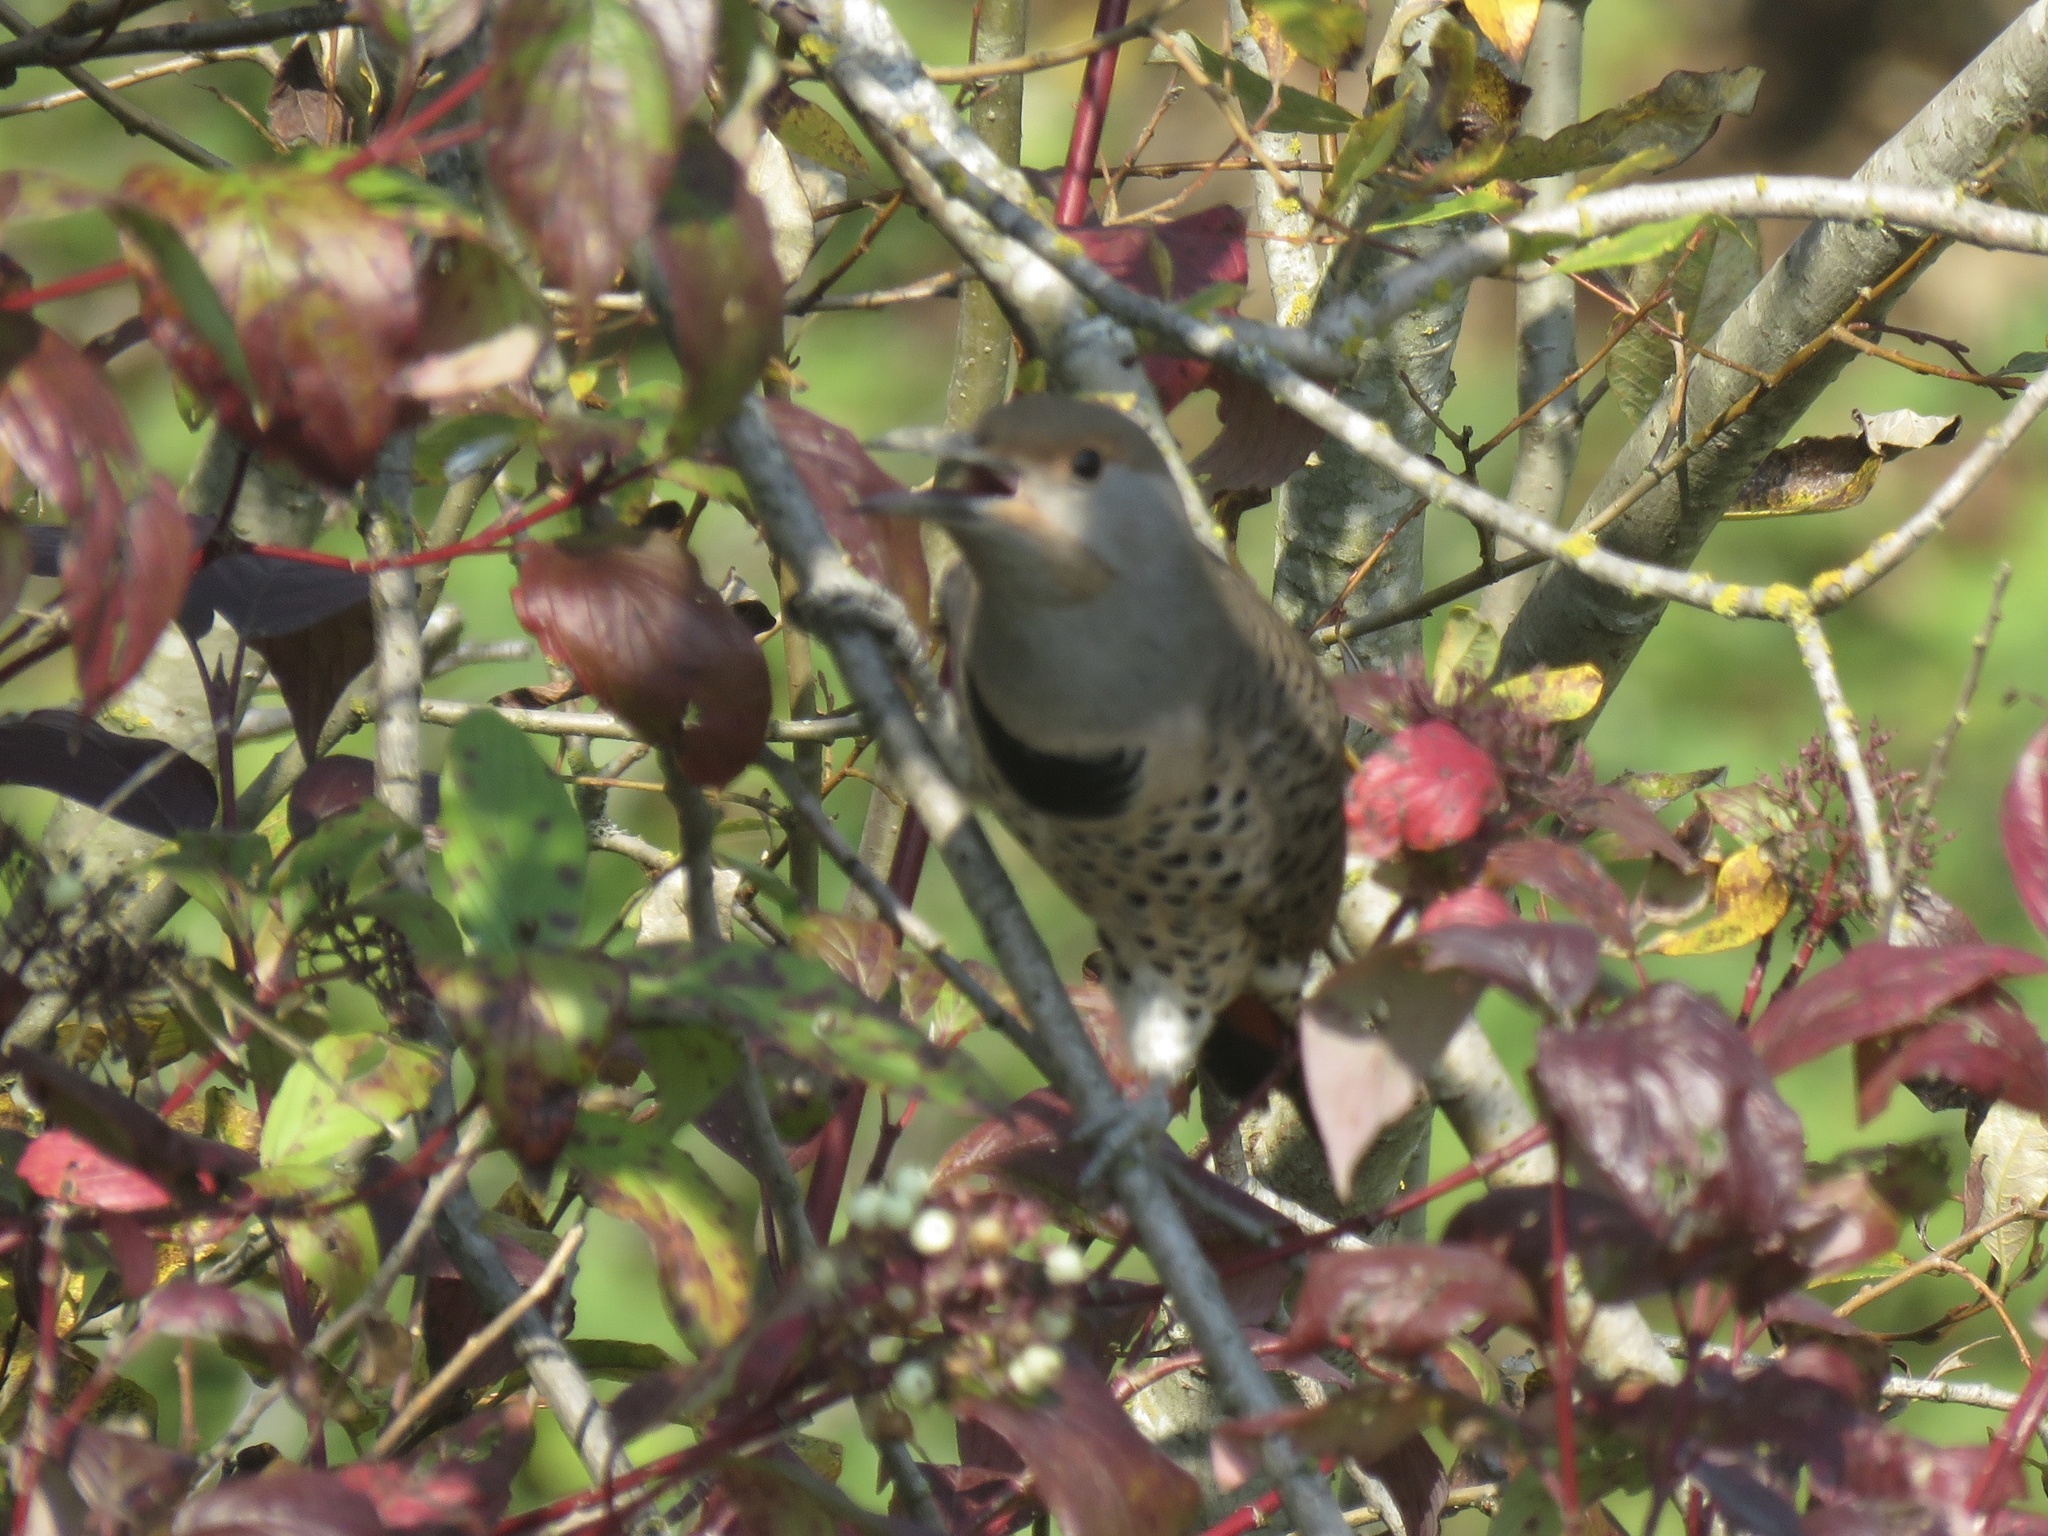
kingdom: Animalia
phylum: Chordata
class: Aves
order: Piciformes
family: Picidae
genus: Colaptes
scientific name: Colaptes auratus
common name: Northern flicker
